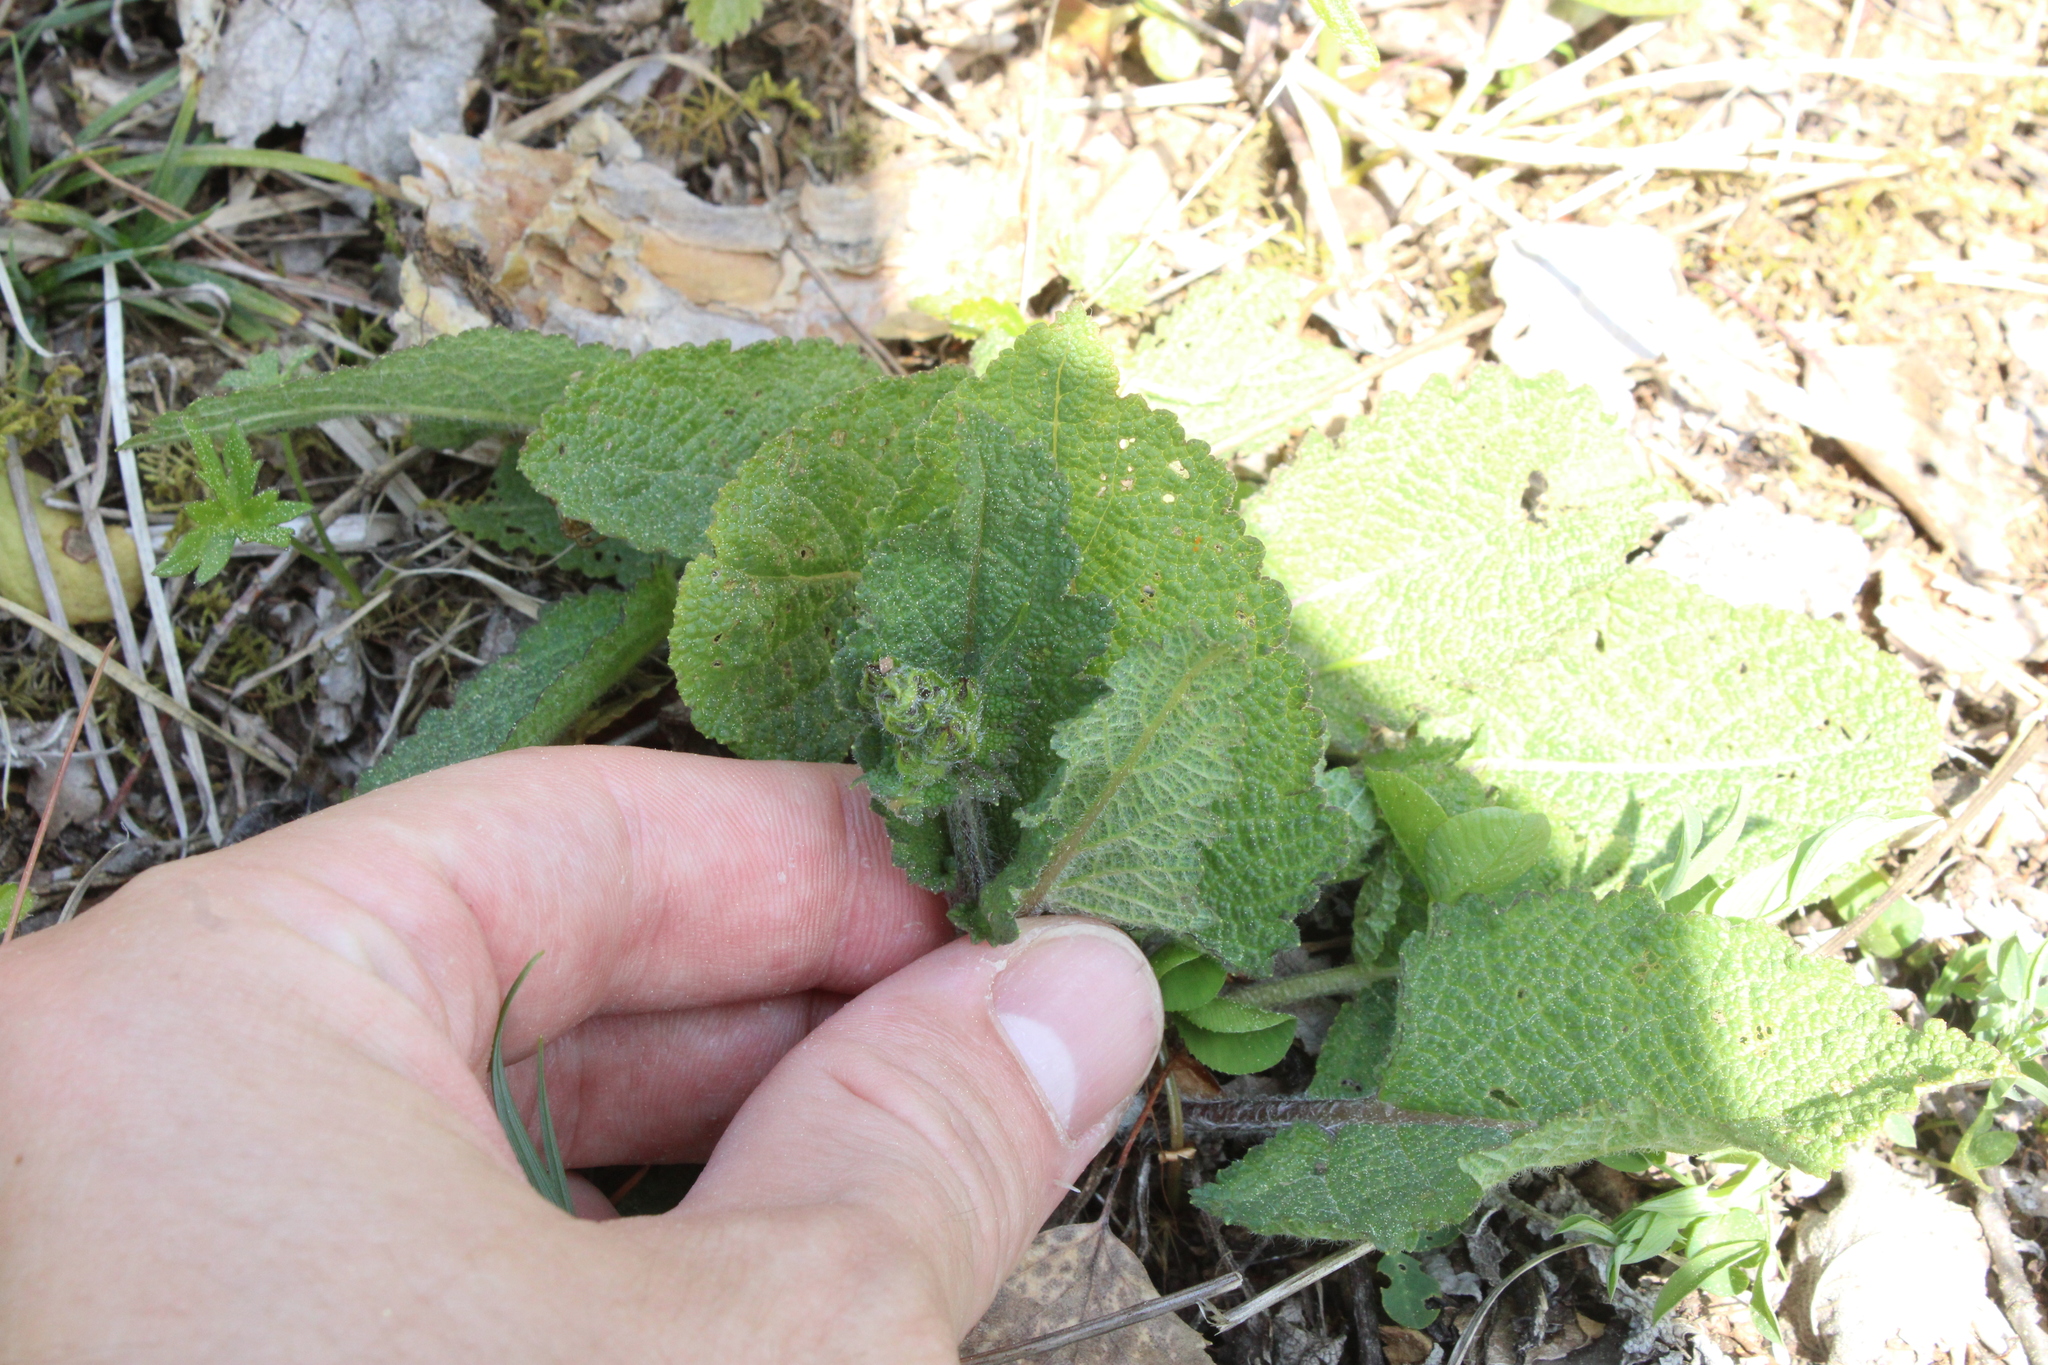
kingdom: Plantae
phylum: Tracheophyta
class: Magnoliopsida
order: Lamiales
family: Lamiaceae
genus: Salvia
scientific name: Salvia pratensis
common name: Meadow sage
